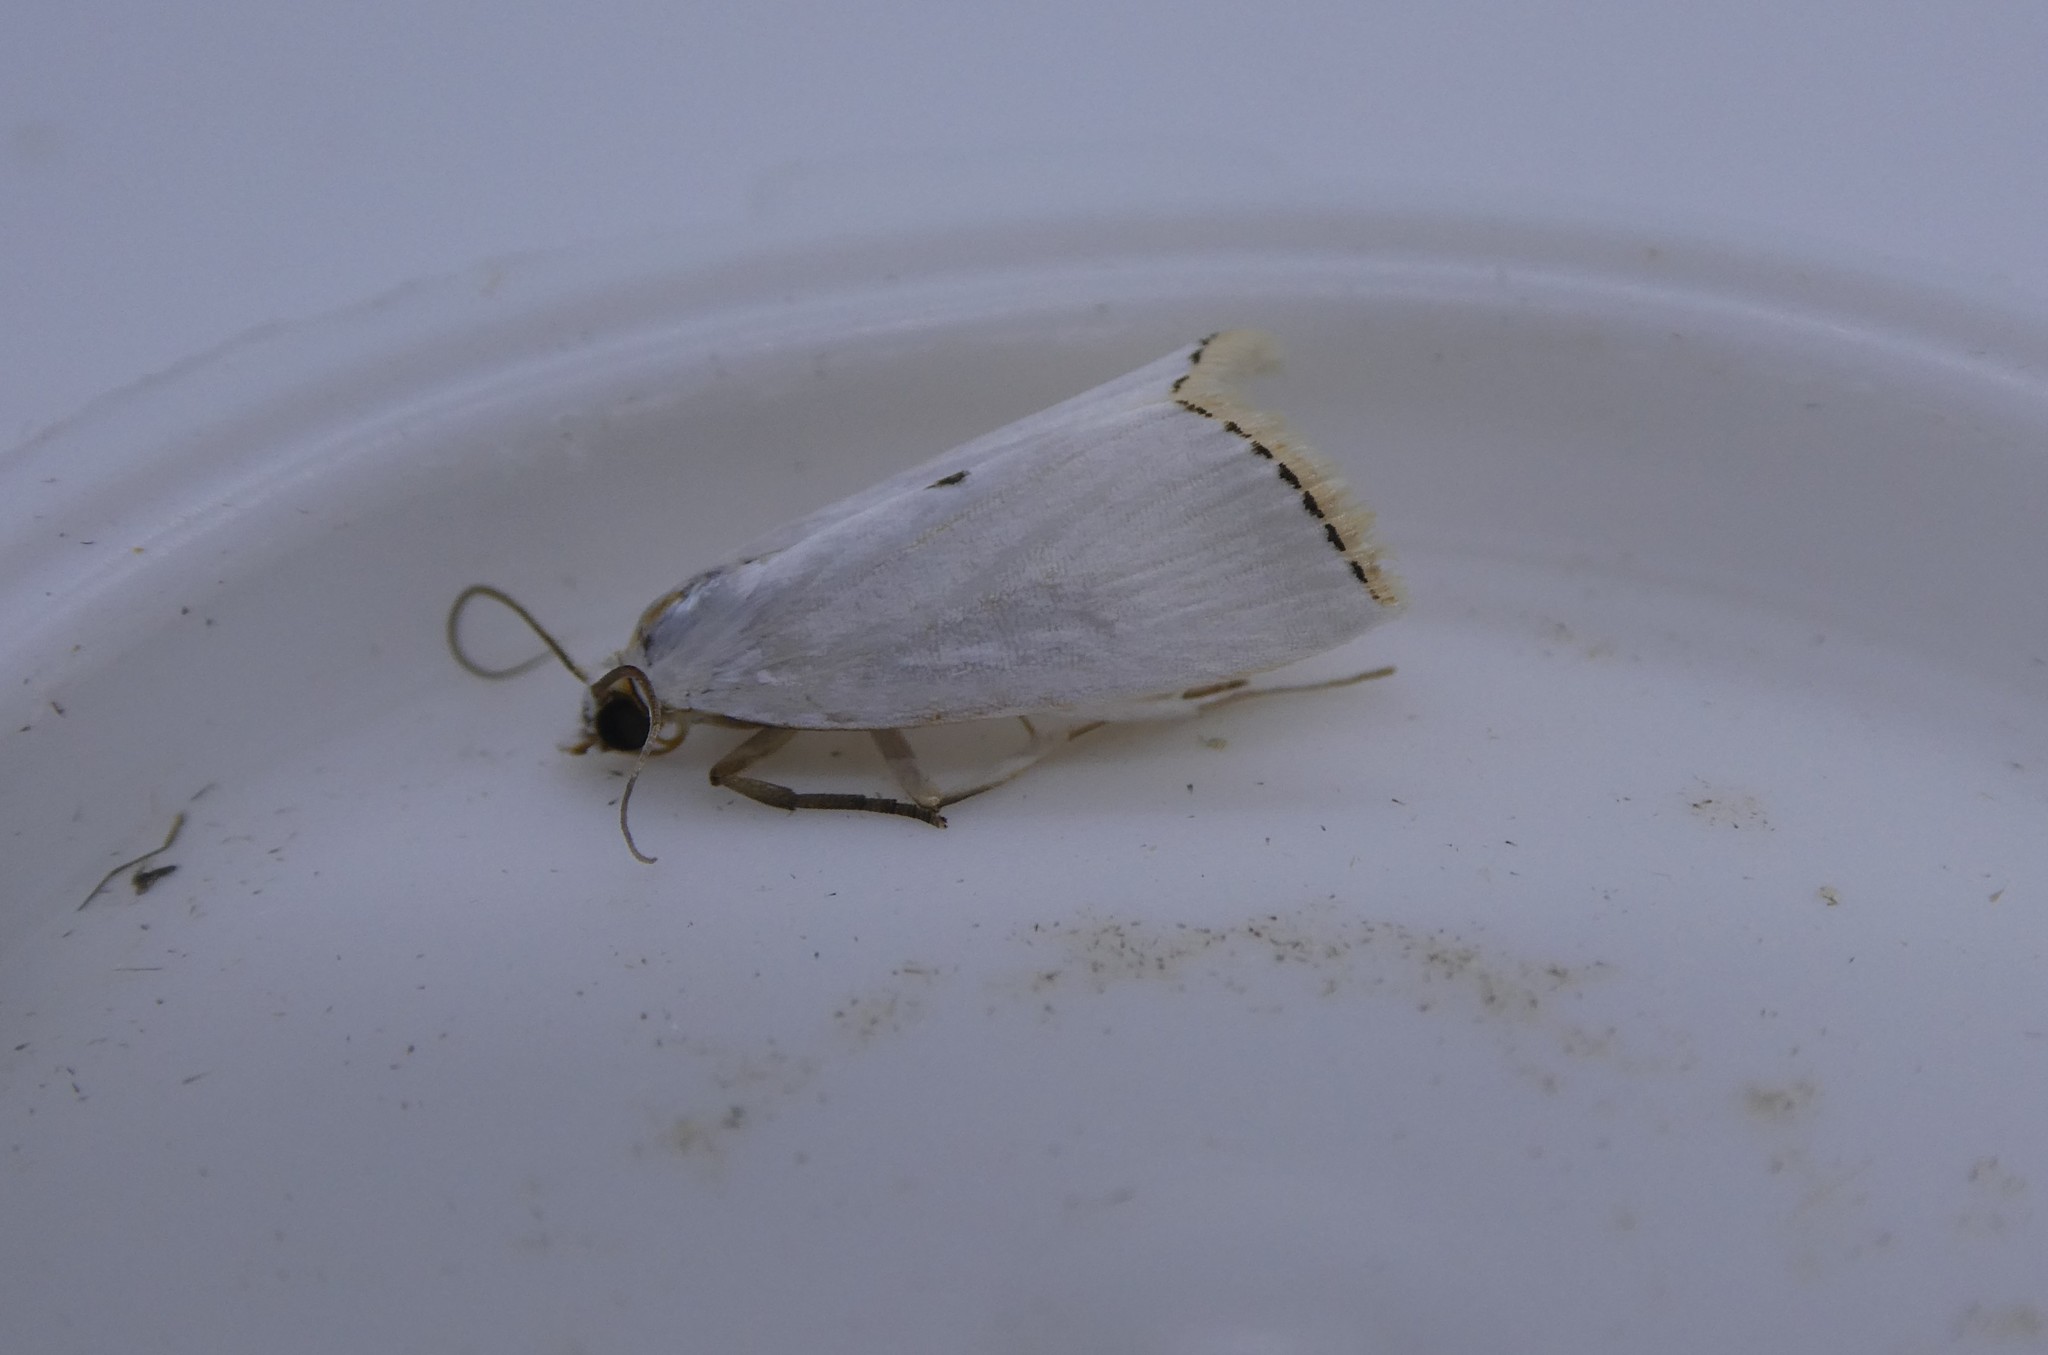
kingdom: Animalia
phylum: Arthropoda
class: Insecta
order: Lepidoptera
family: Crambidae
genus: Argyria
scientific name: Argyria nivalis
